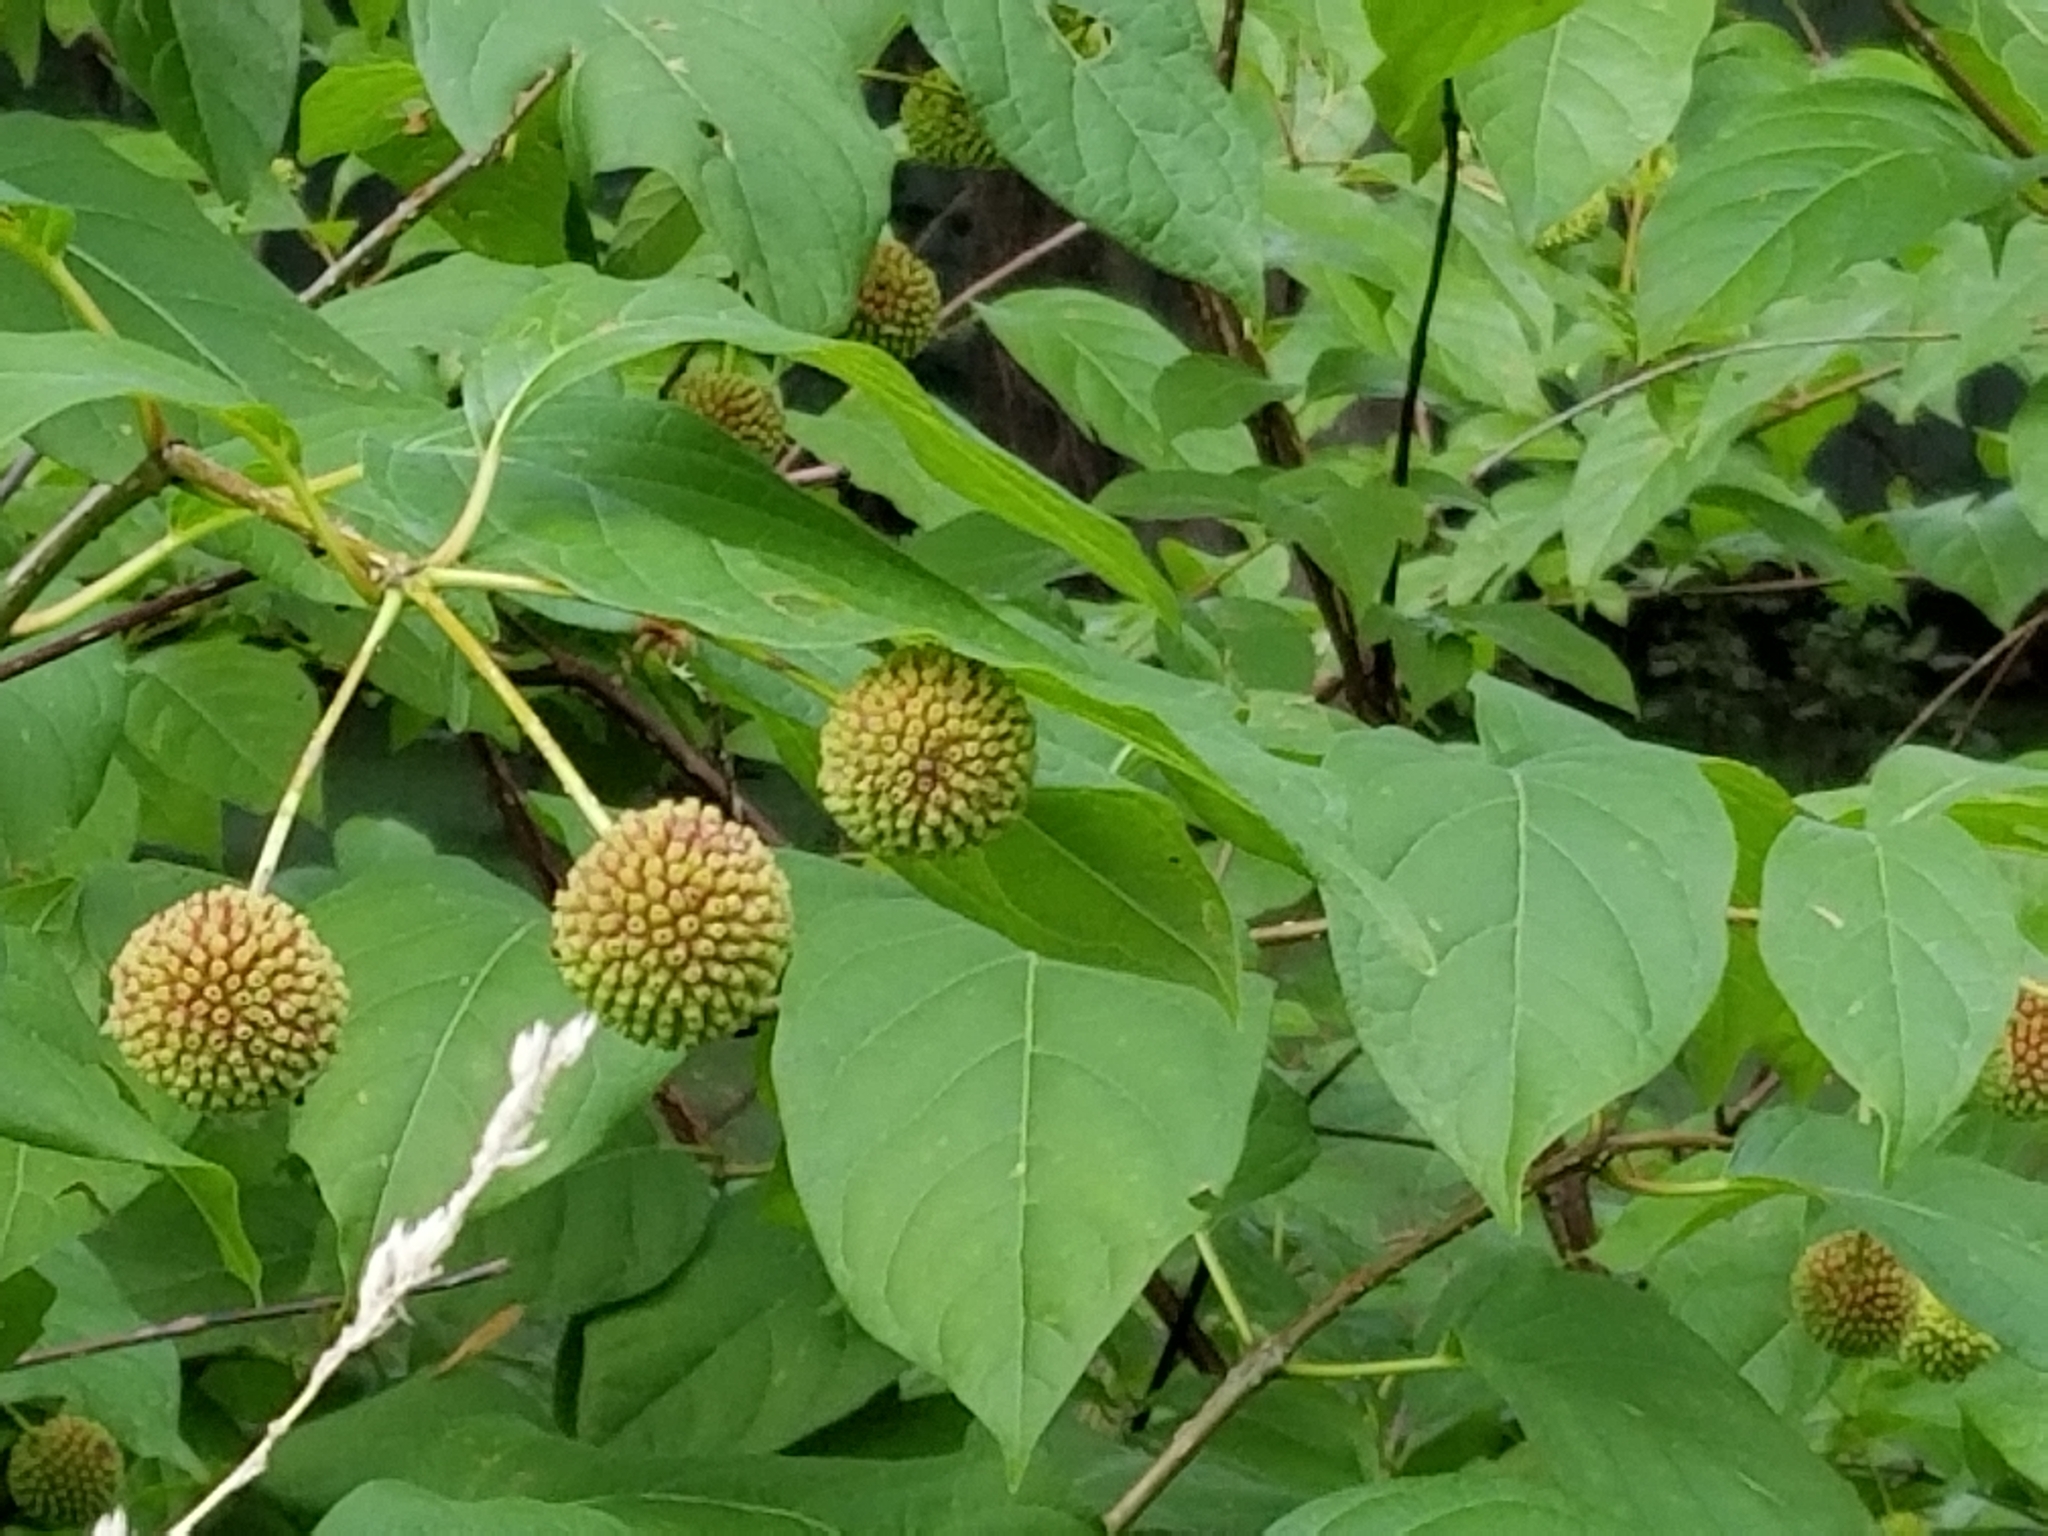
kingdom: Plantae
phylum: Tracheophyta
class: Magnoliopsida
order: Gentianales
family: Rubiaceae
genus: Cephalanthus
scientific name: Cephalanthus occidentalis
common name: Button-willow
